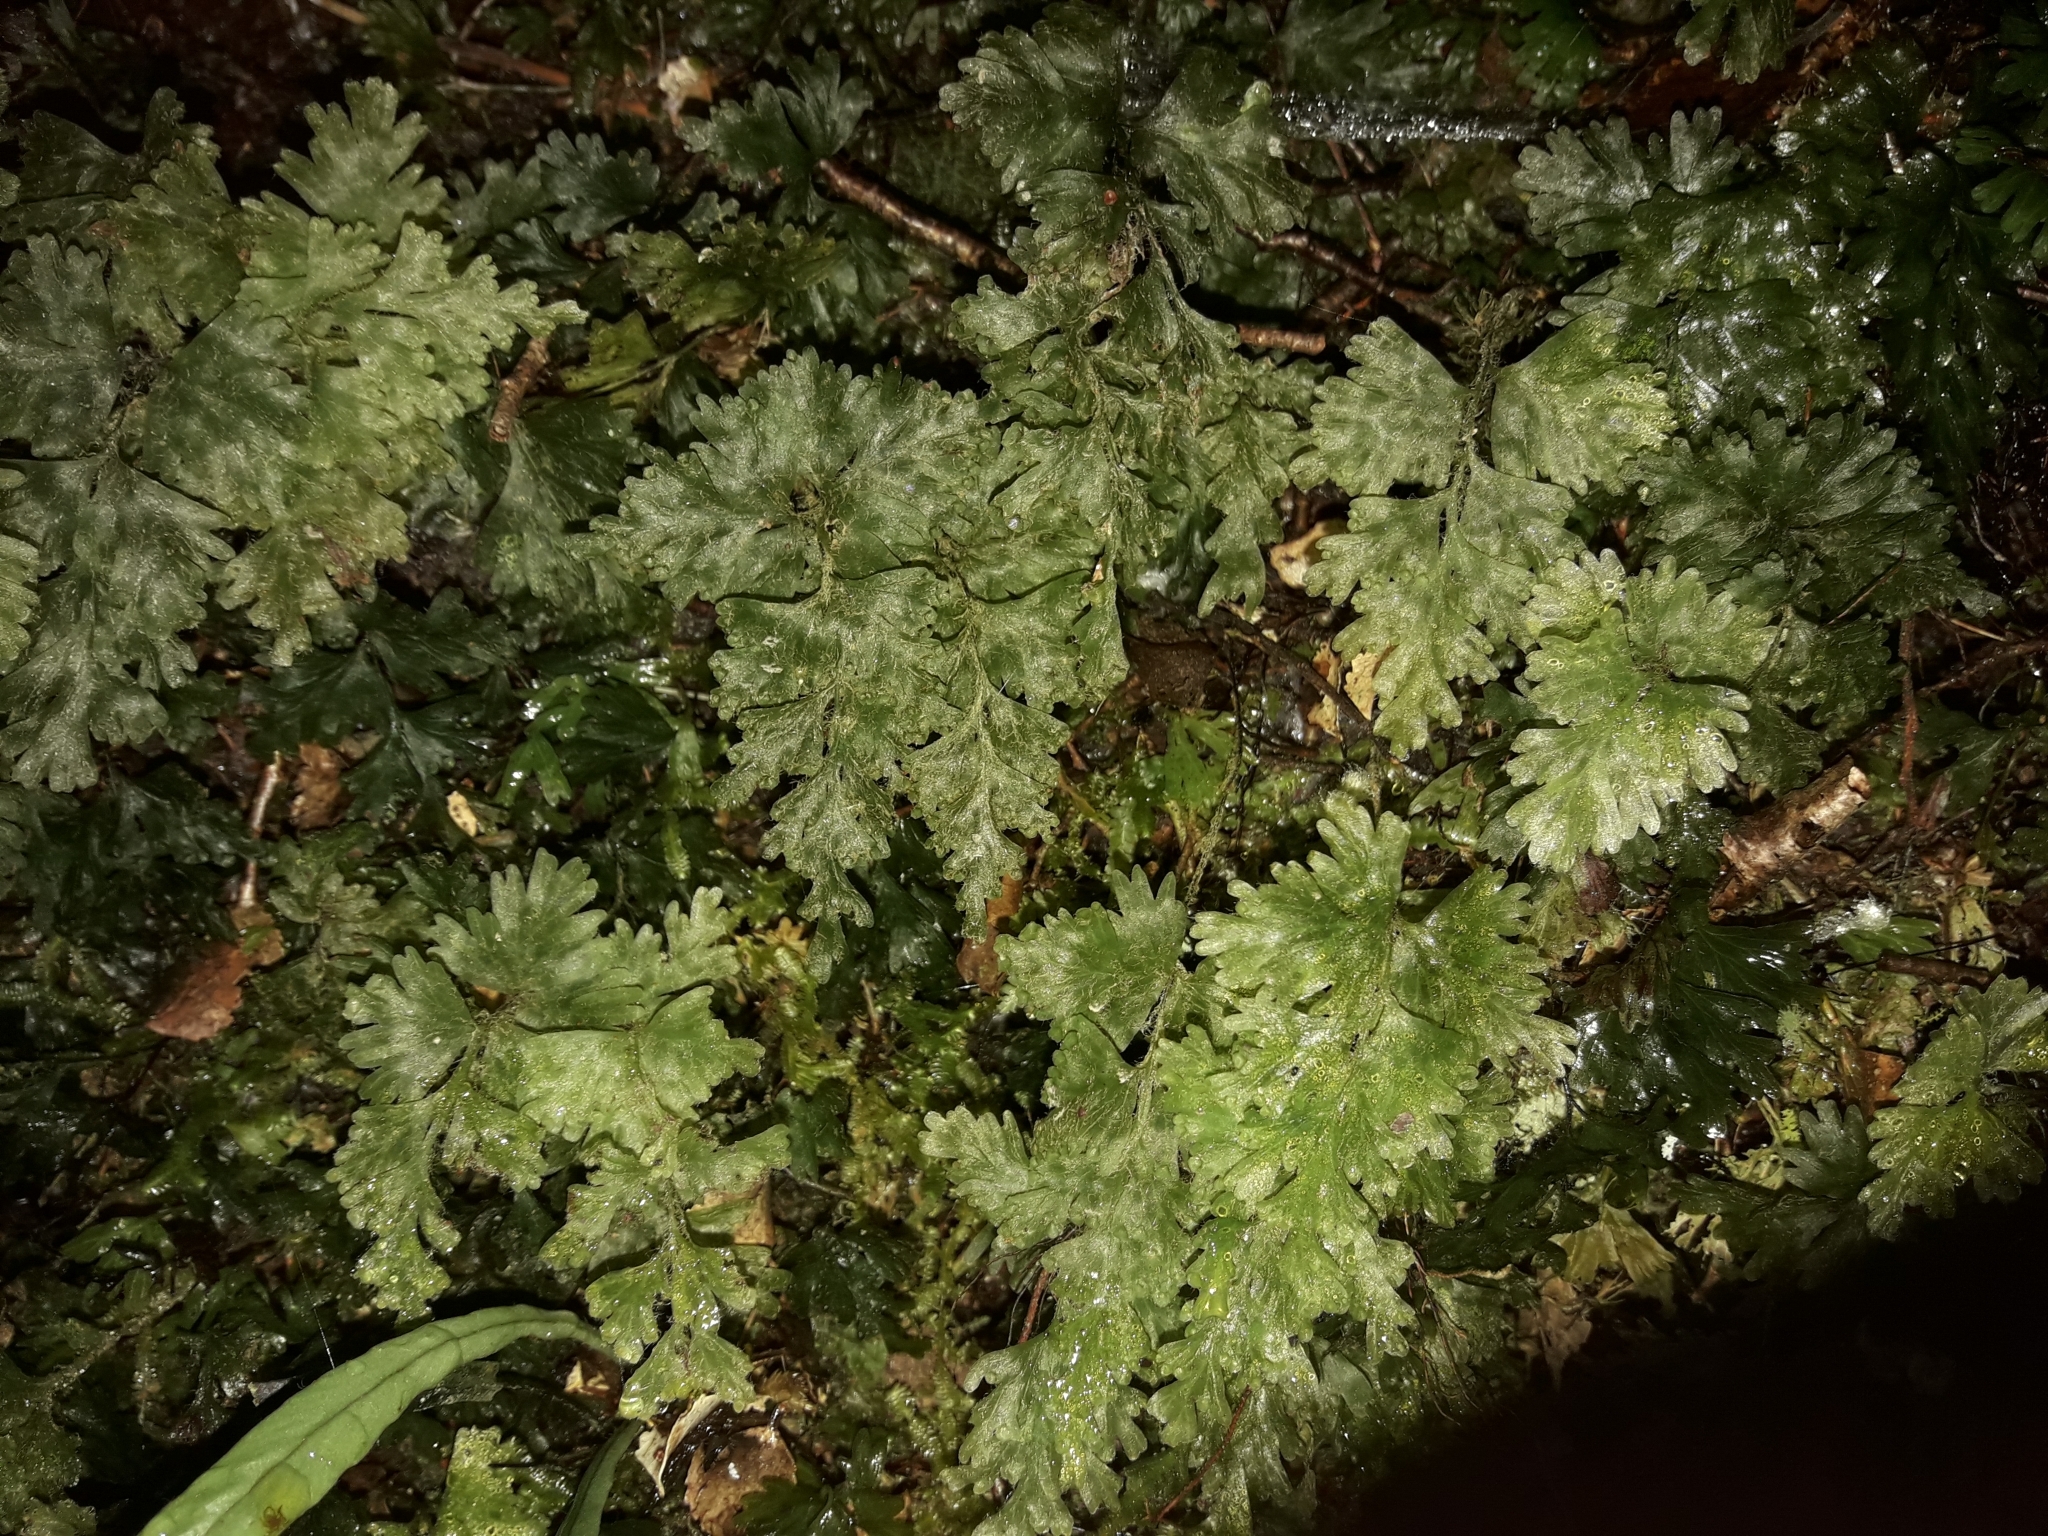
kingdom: Plantae
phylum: Tracheophyta
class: Polypodiopsida
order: Hymenophyllales
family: Hymenophyllaceae
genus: Hymenophyllum
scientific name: Hymenophyllum rufescens
